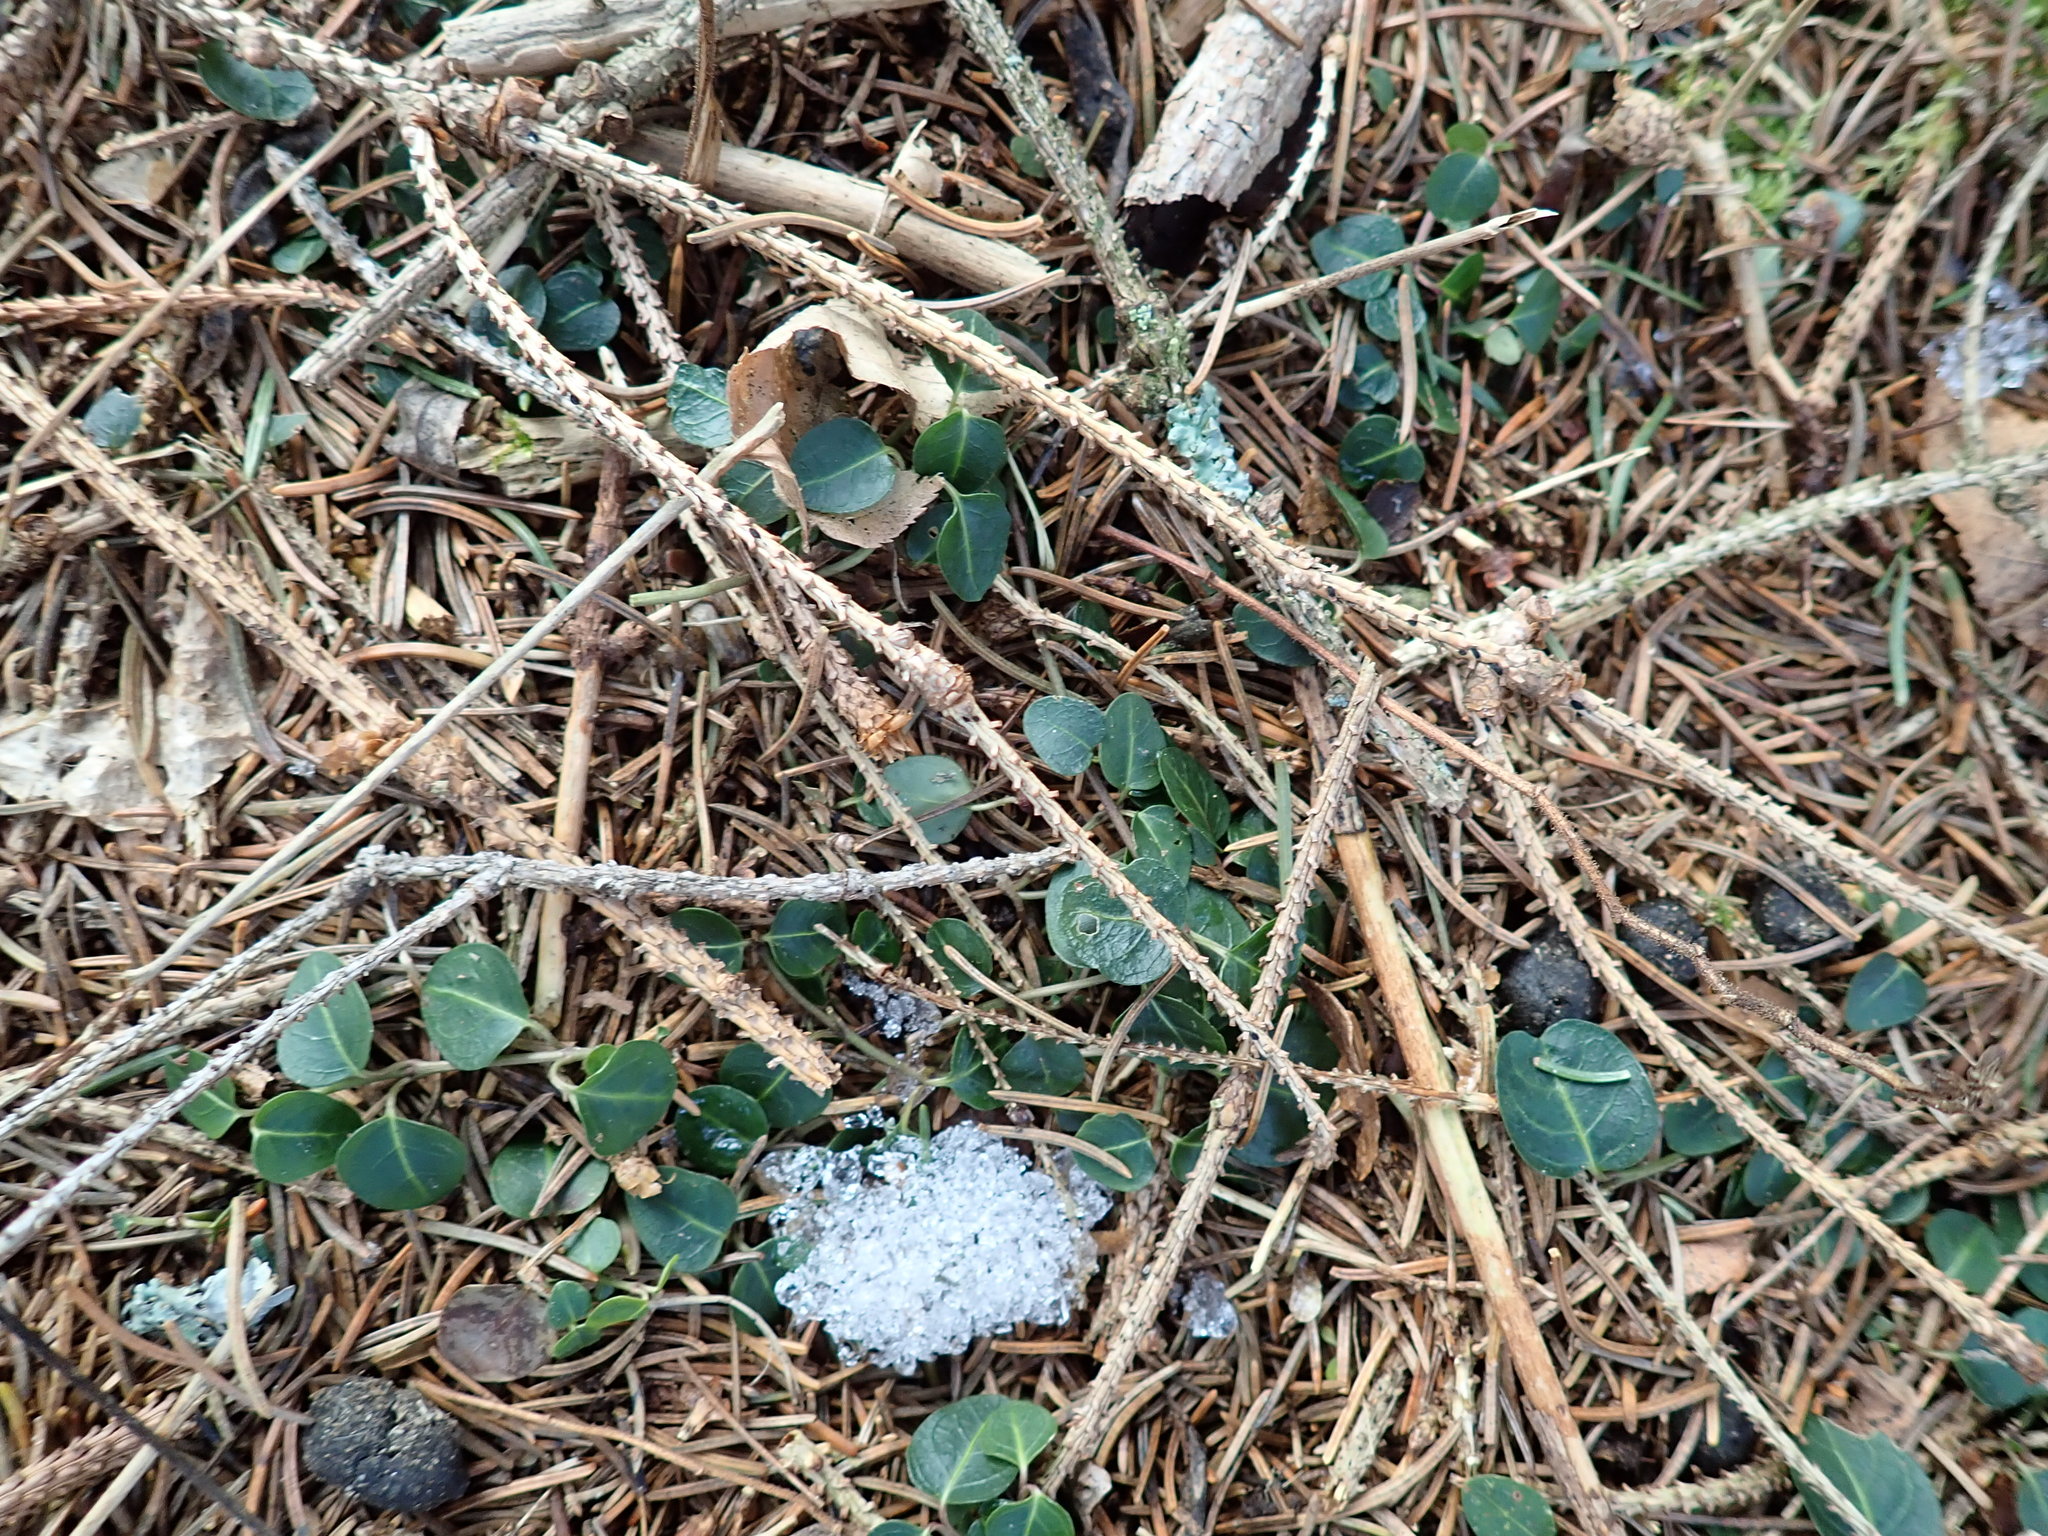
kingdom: Plantae
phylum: Tracheophyta
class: Magnoliopsida
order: Gentianales
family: Rubiaceae
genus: Mitchella
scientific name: Mitchella repens
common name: Partridge-berry
